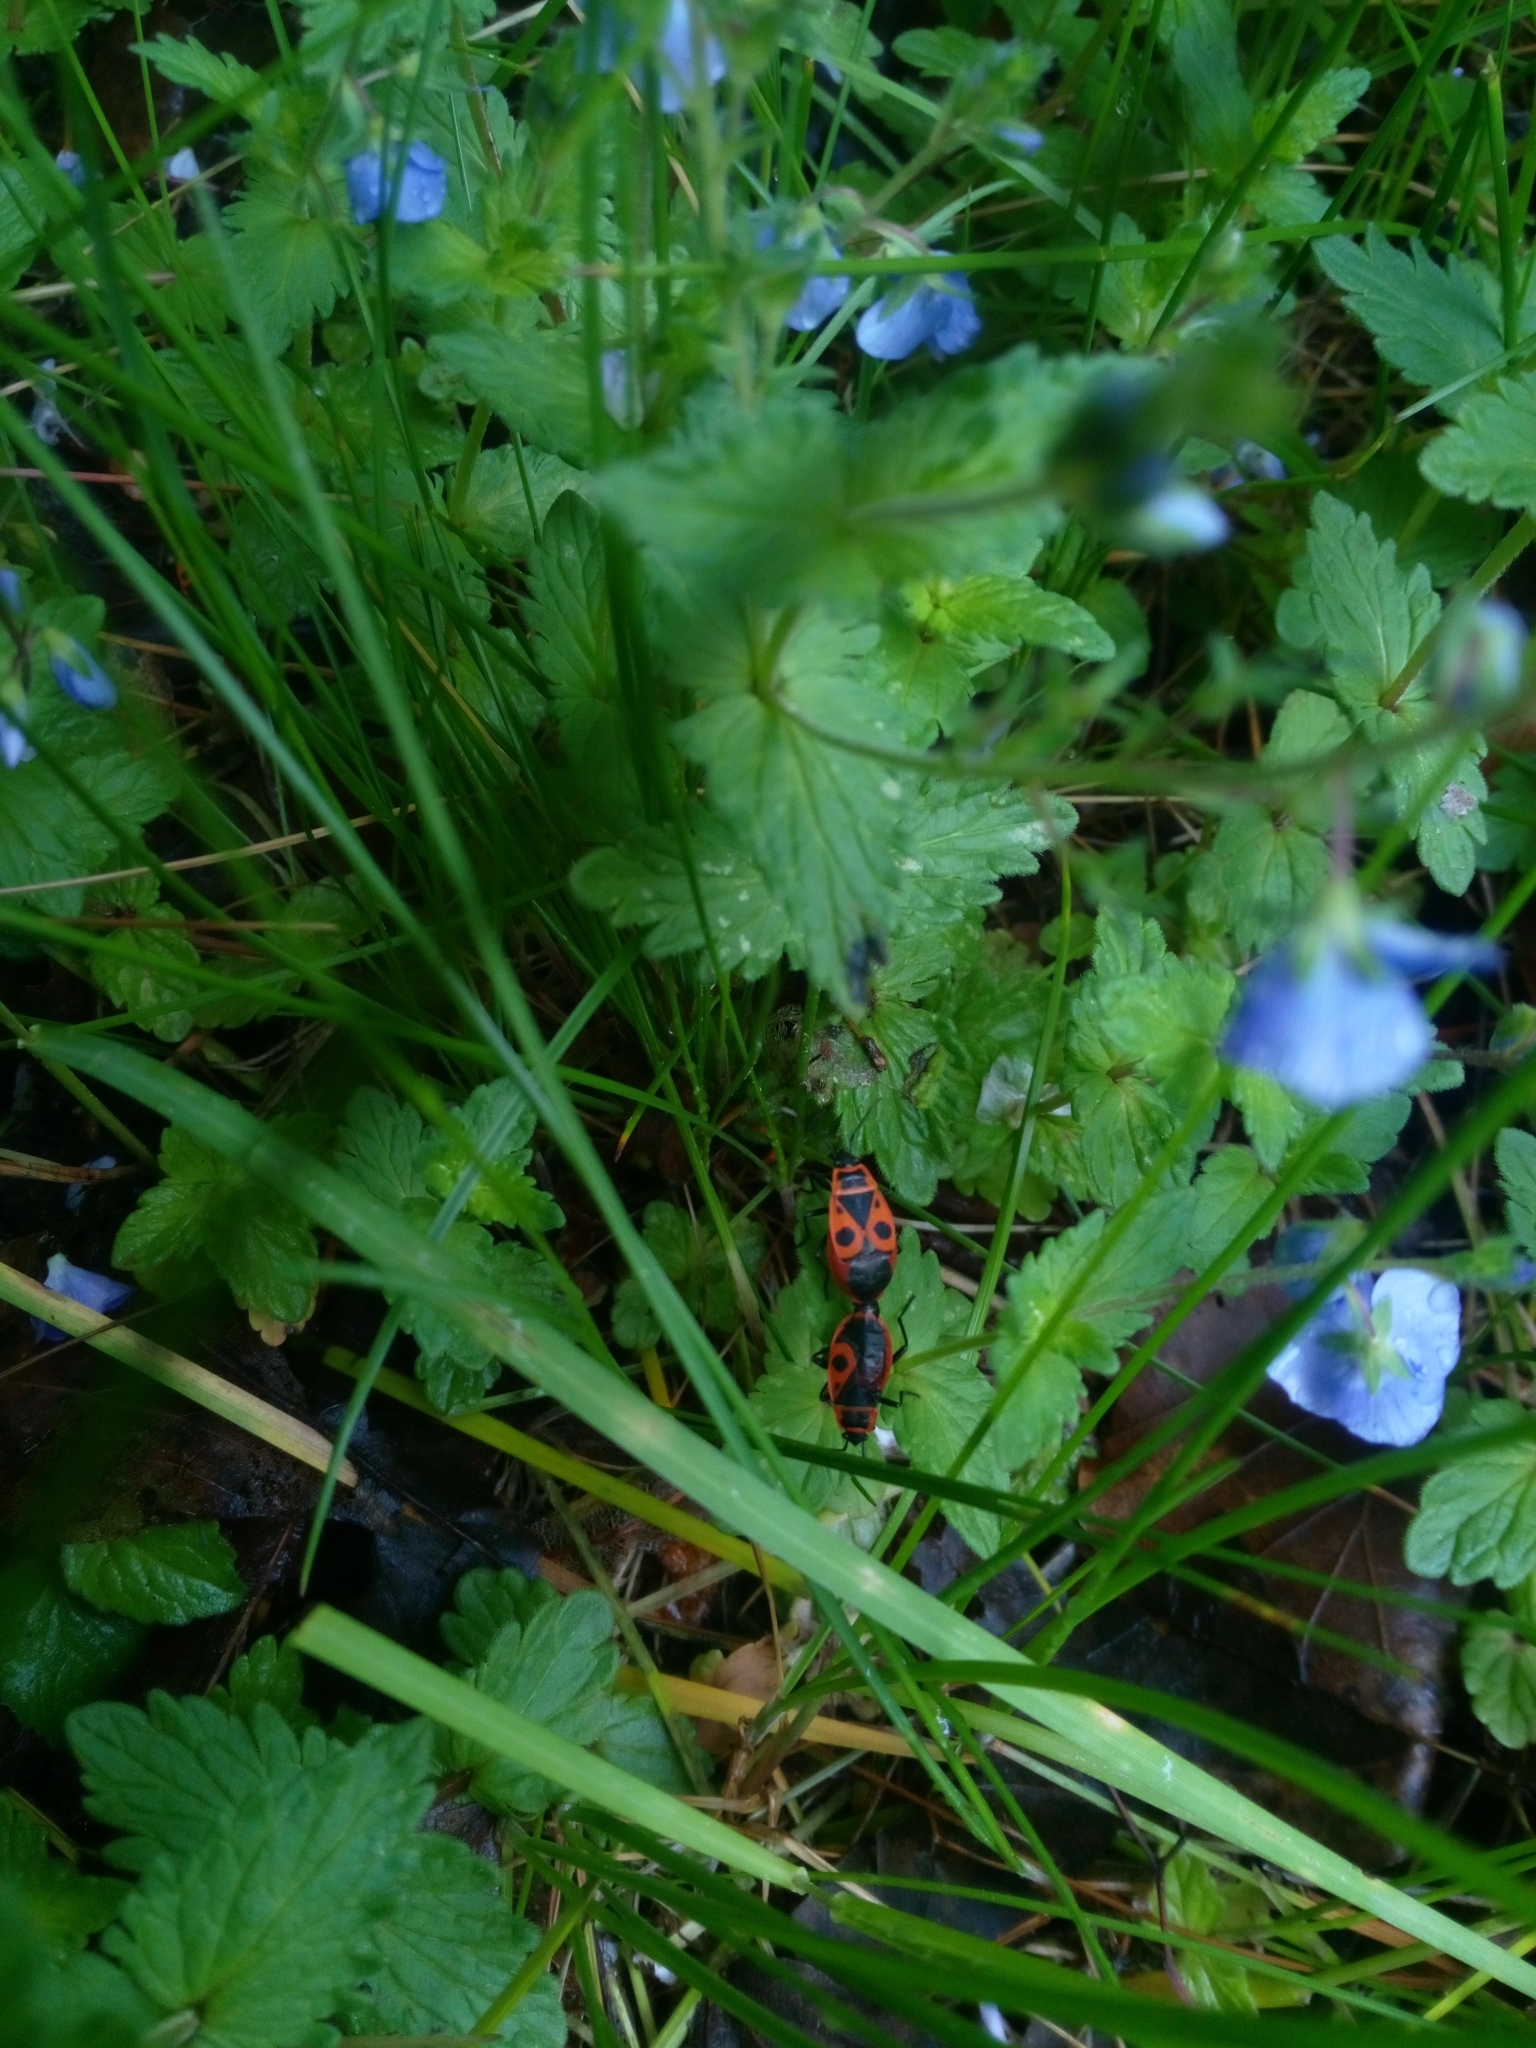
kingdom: Animalia
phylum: Arthropoda
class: Insecta
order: Hemiptera
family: Pyrrhocoridae
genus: Pyrrhocoris
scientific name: Pyrrhocoris apterus
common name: Firebug
